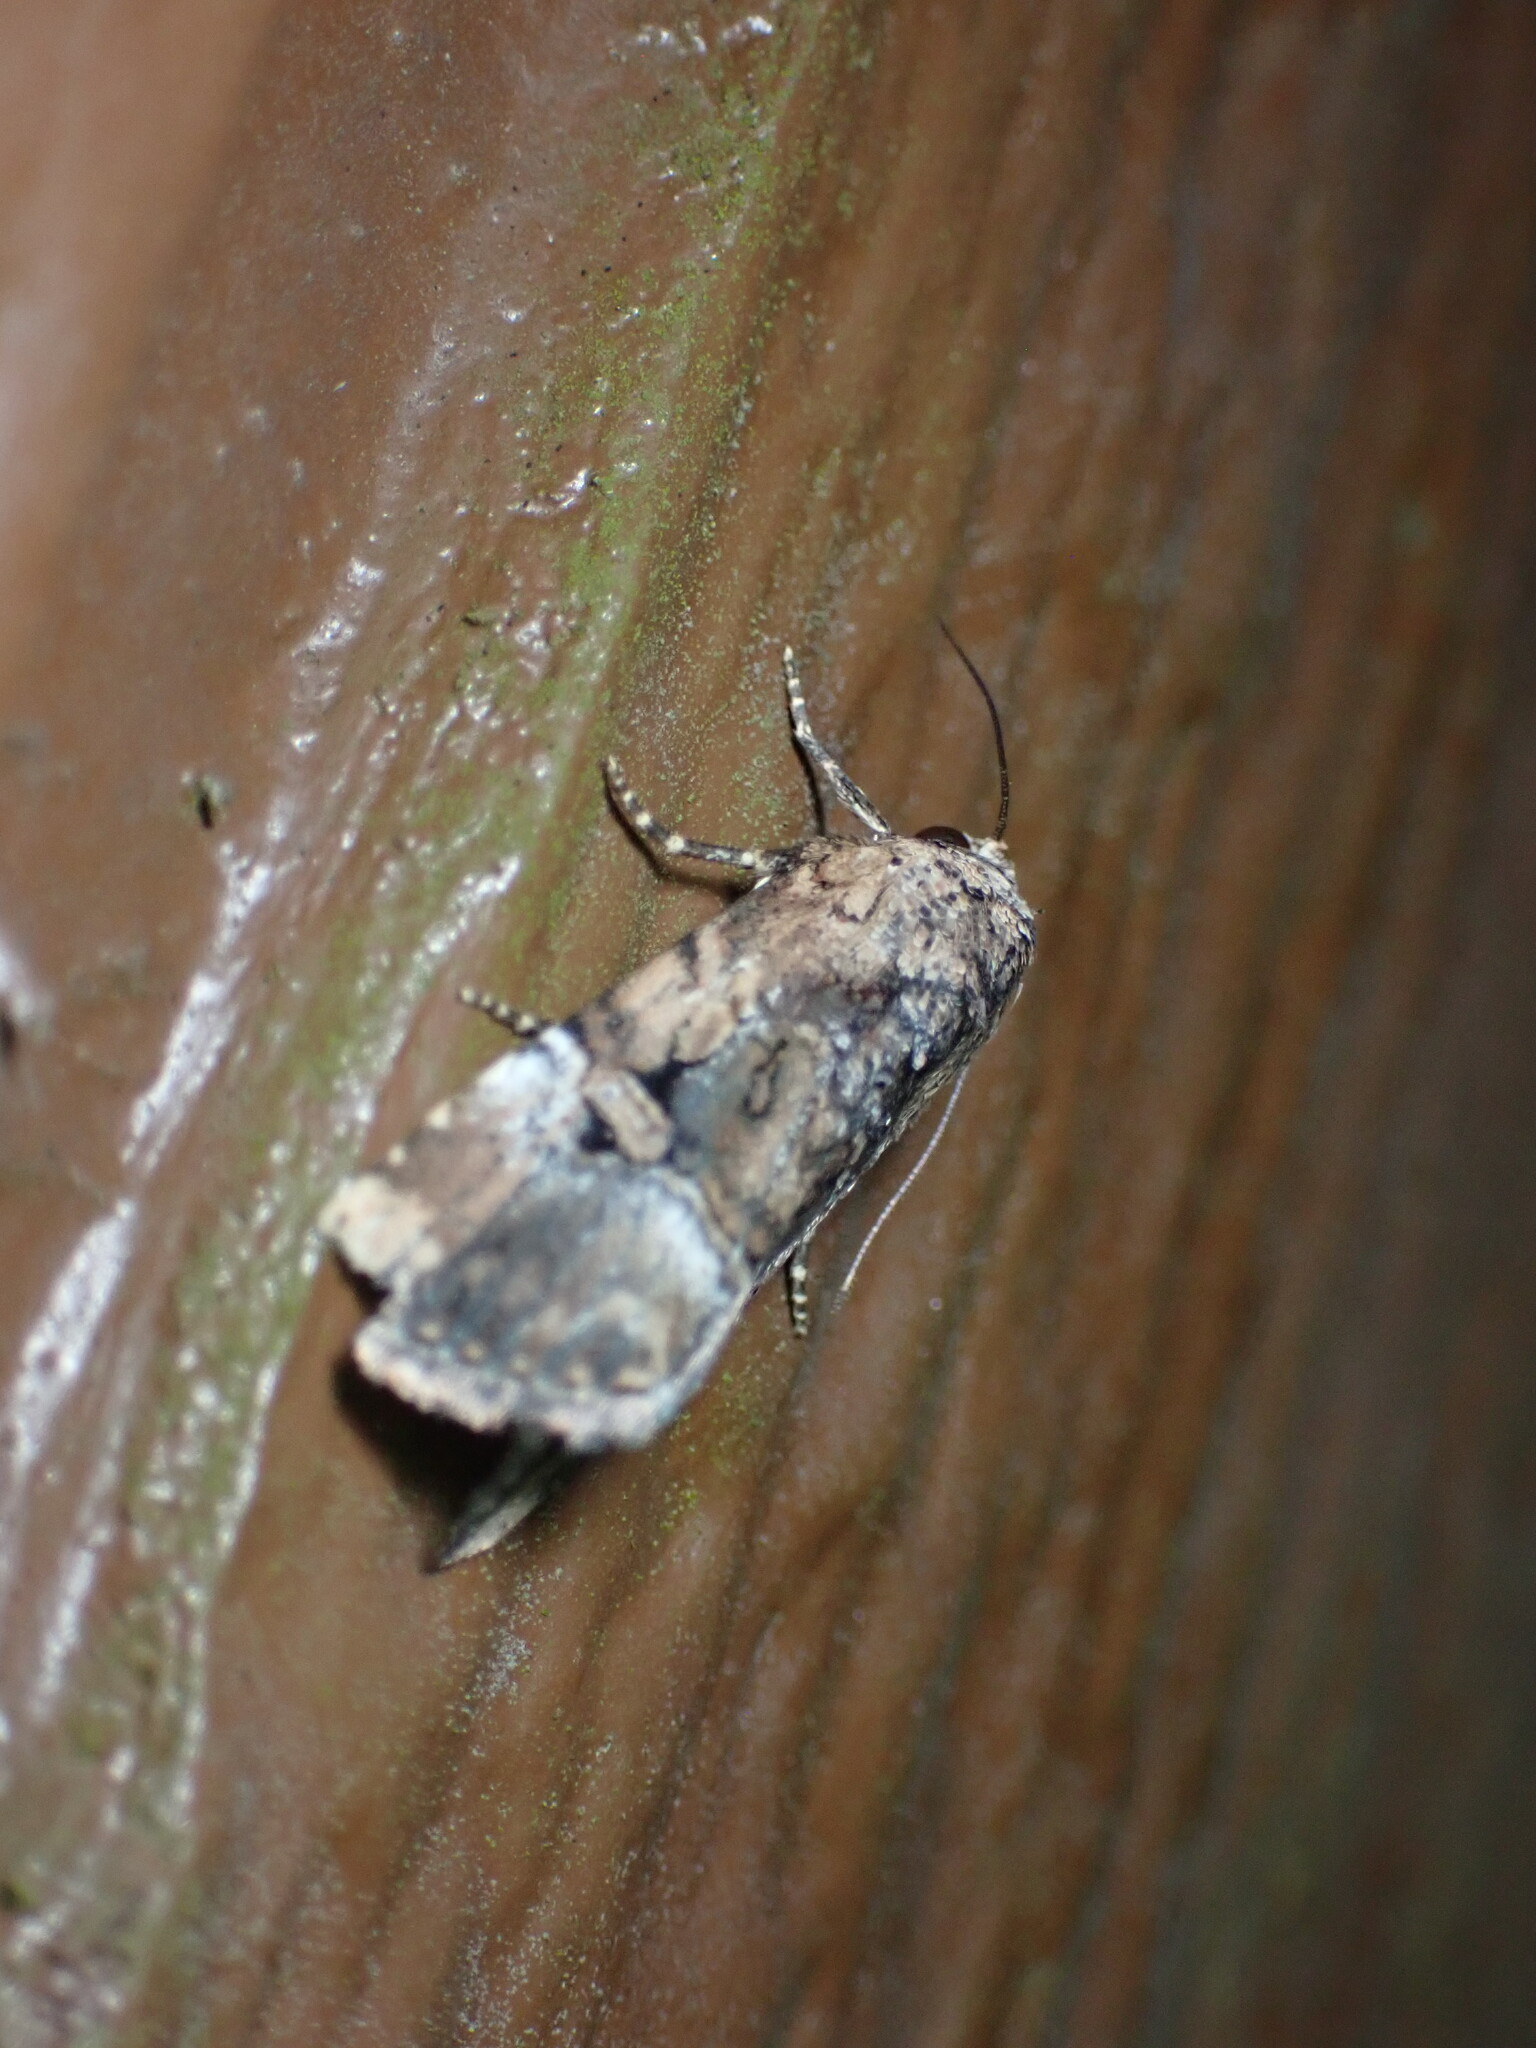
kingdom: Animalia
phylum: Arthropoda
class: Insecta
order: Lepidoptera
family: Noctuidae
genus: Elaphria
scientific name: Elaphria chalcedonia
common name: Chalcedony midget
